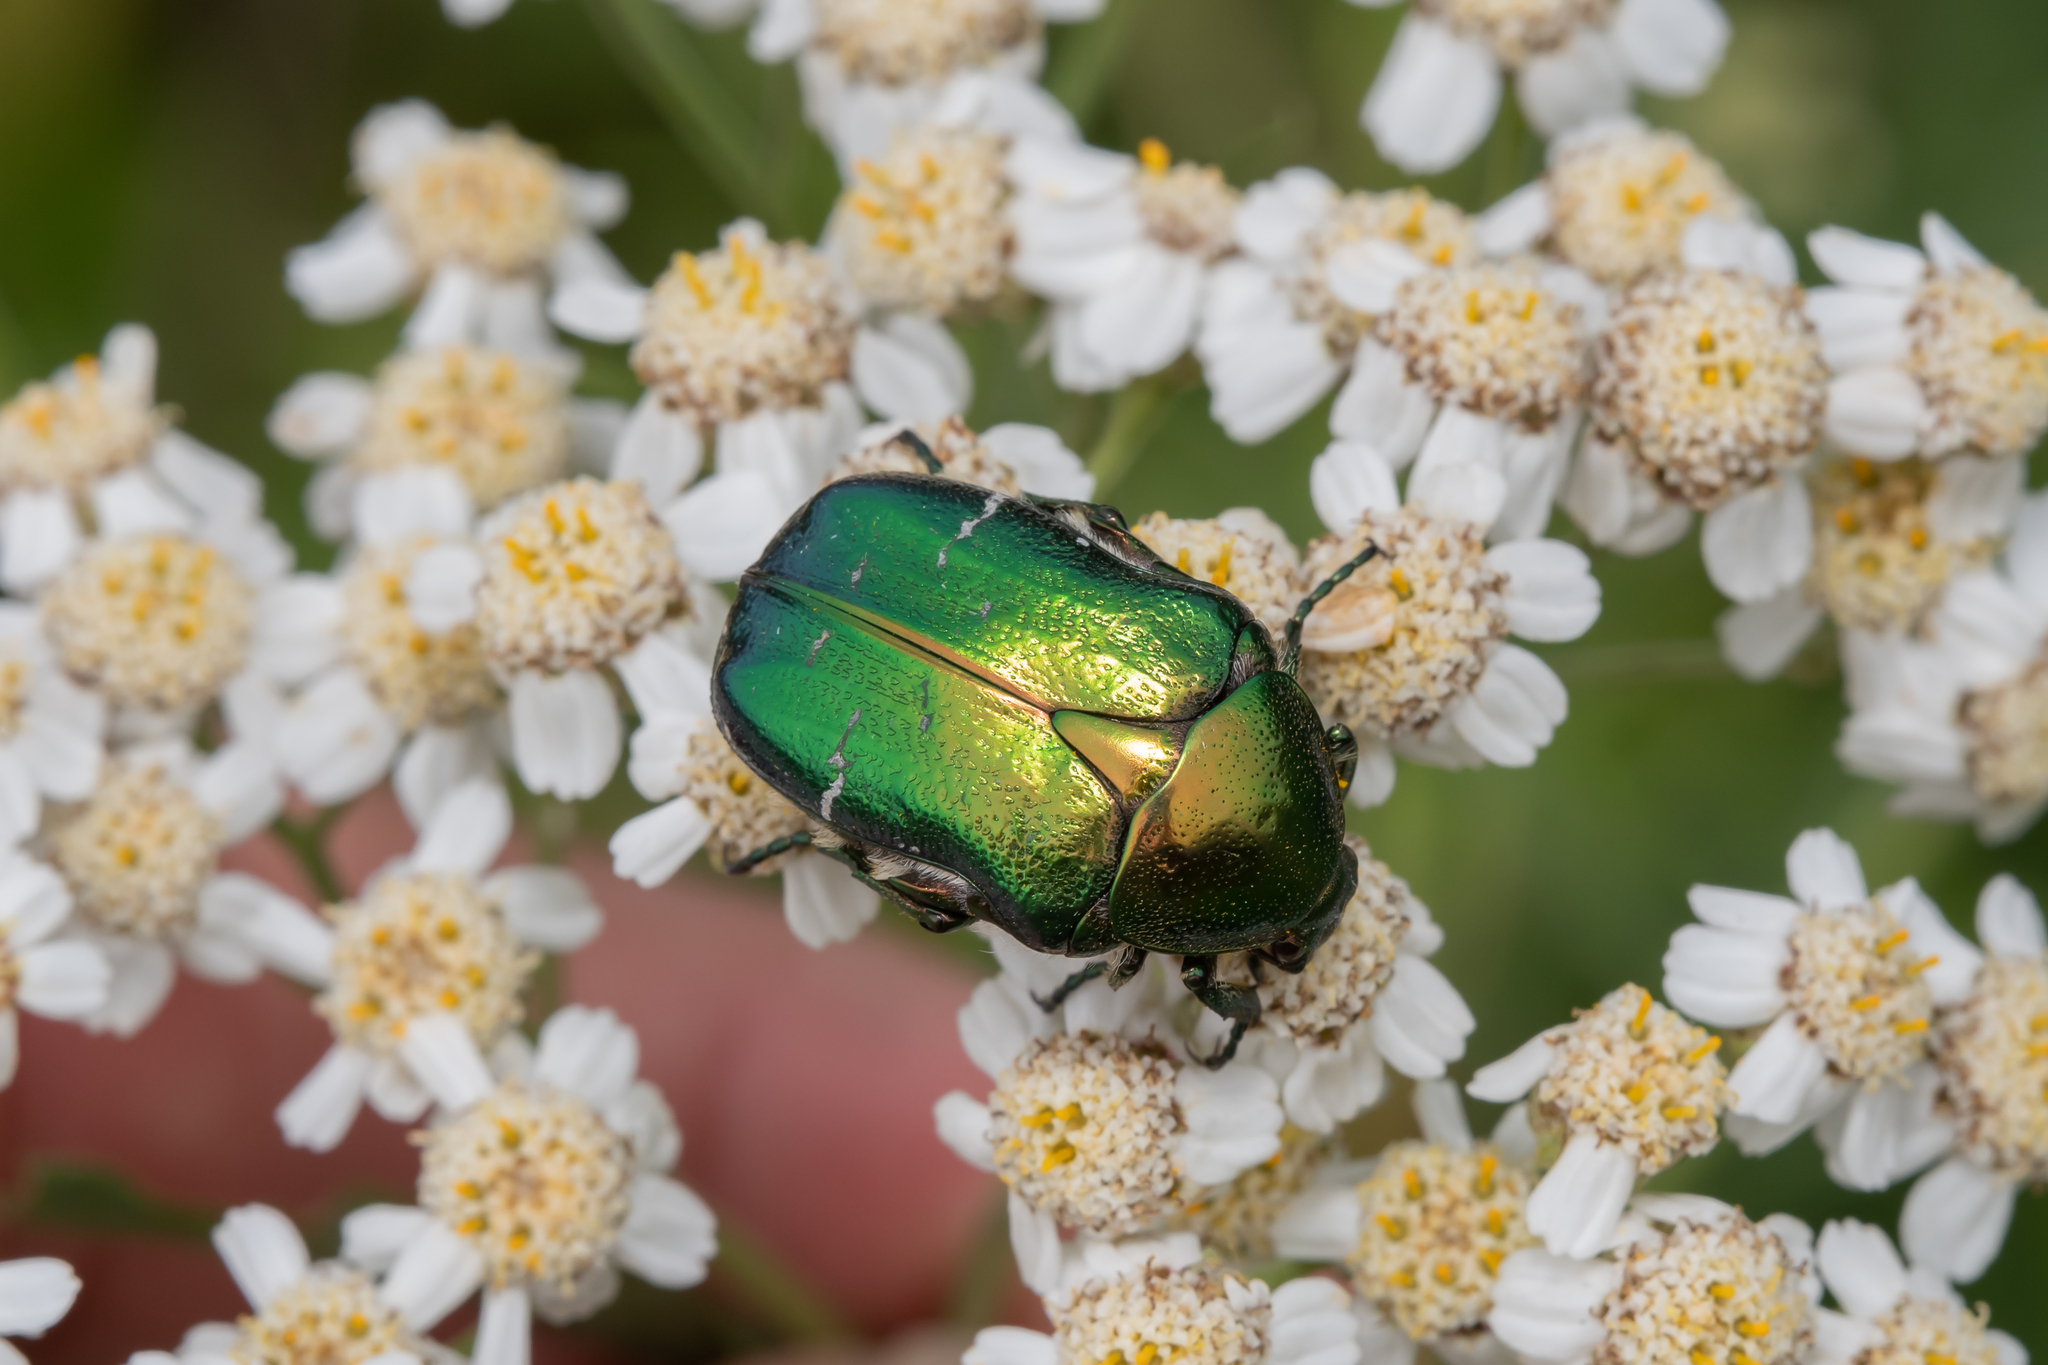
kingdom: Animalia
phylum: Arthropoda
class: Insecta
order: Coleoptera
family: Scarabaeidae
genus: Cetonia
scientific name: Cetonia aurata
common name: Rose chafer
